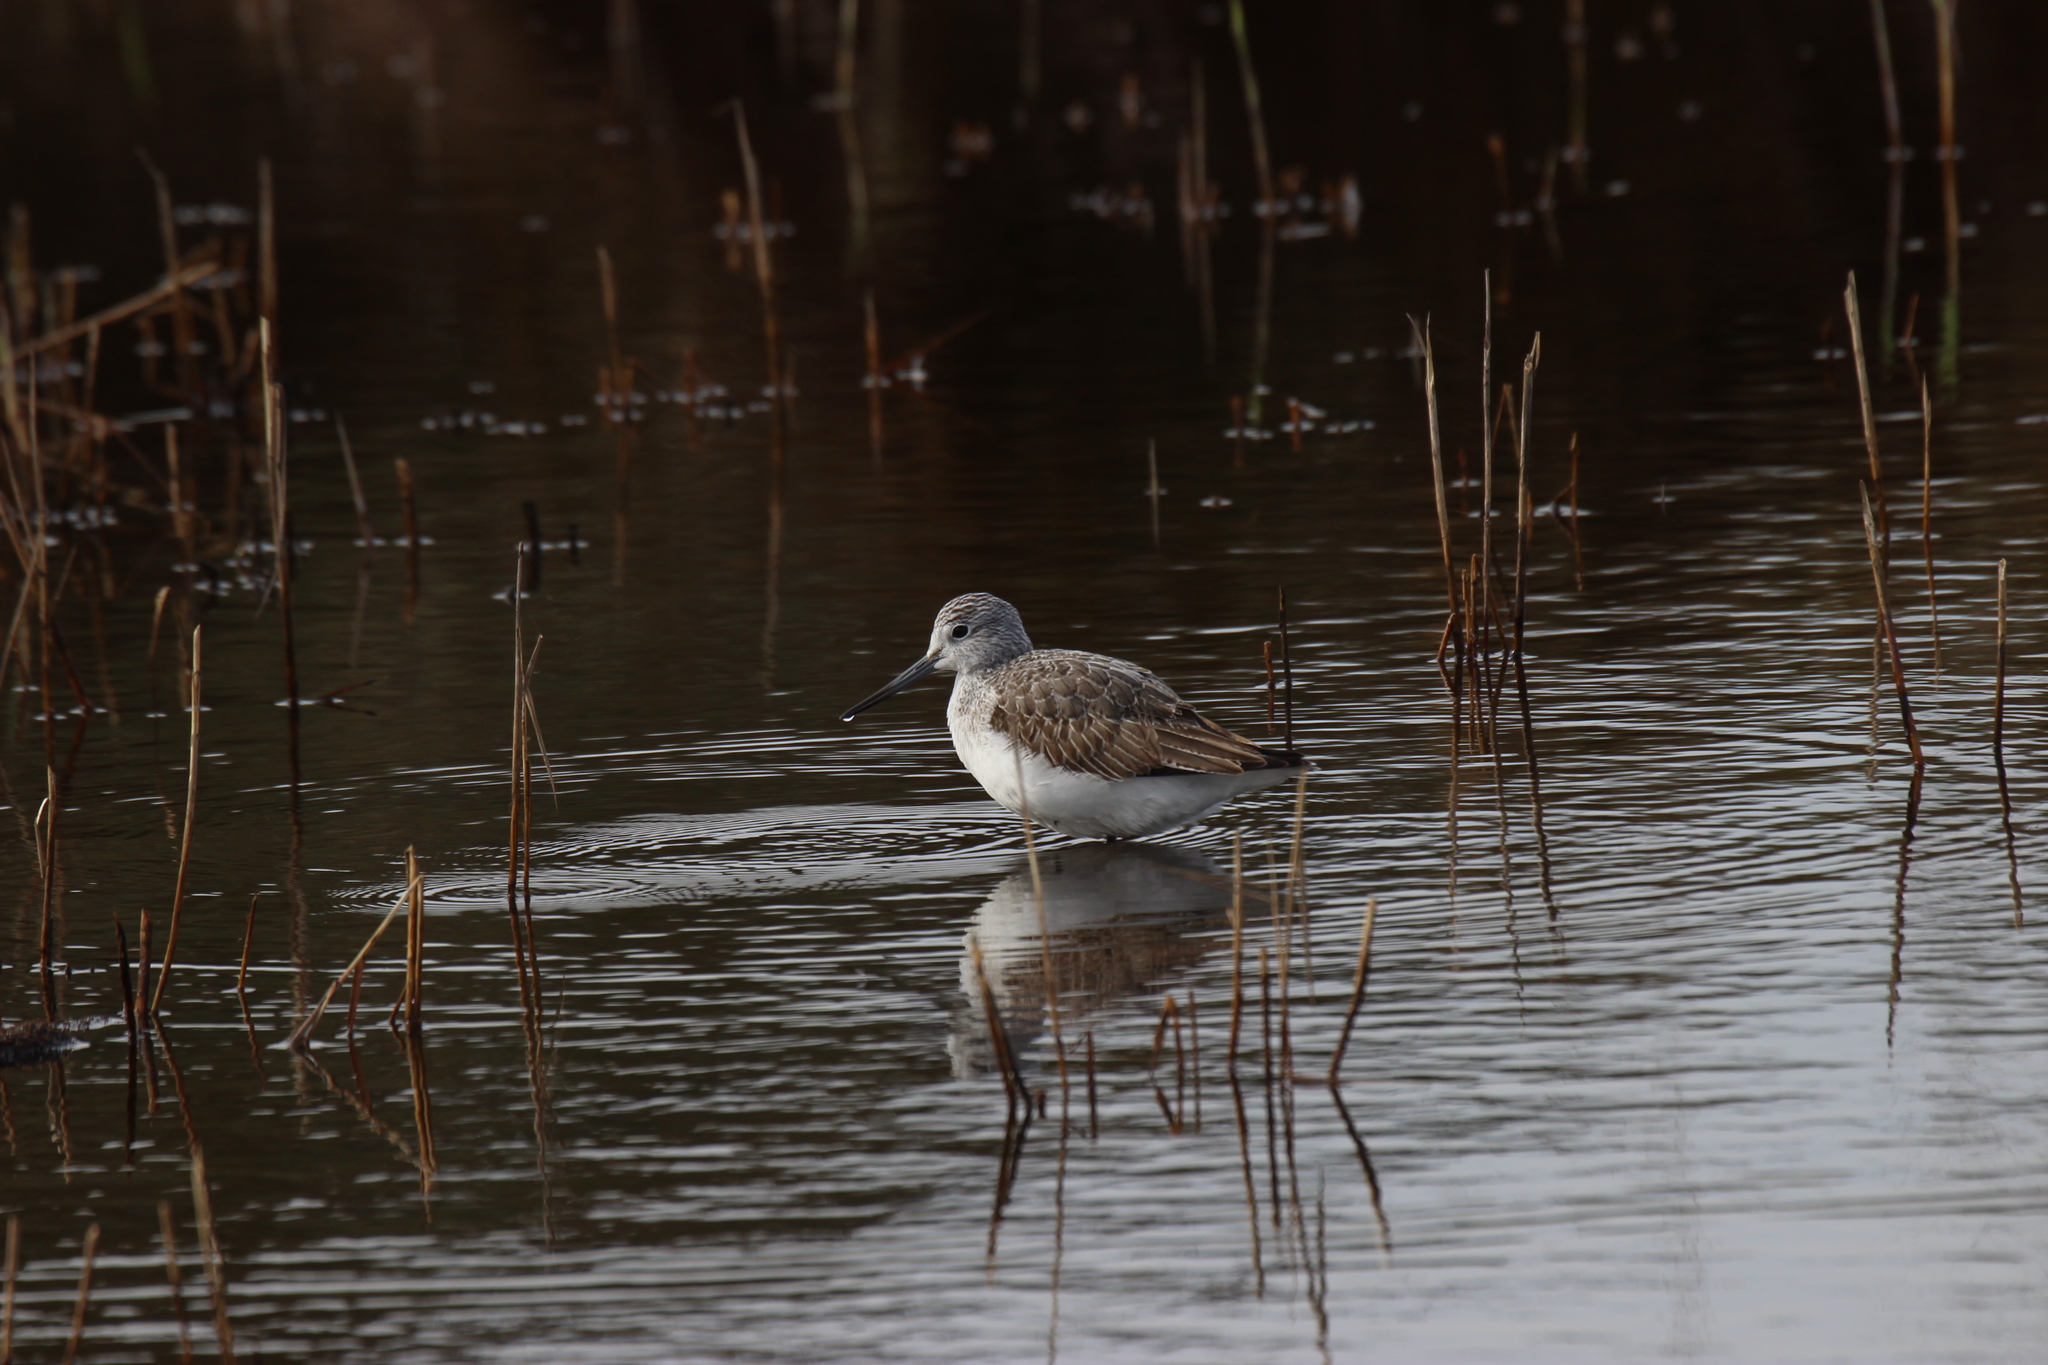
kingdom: Animalia
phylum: Chordata
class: Aves
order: Charadriiformes
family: Scolopacidae
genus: Tringa
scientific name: Tringa nebularia
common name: Common greenshank
